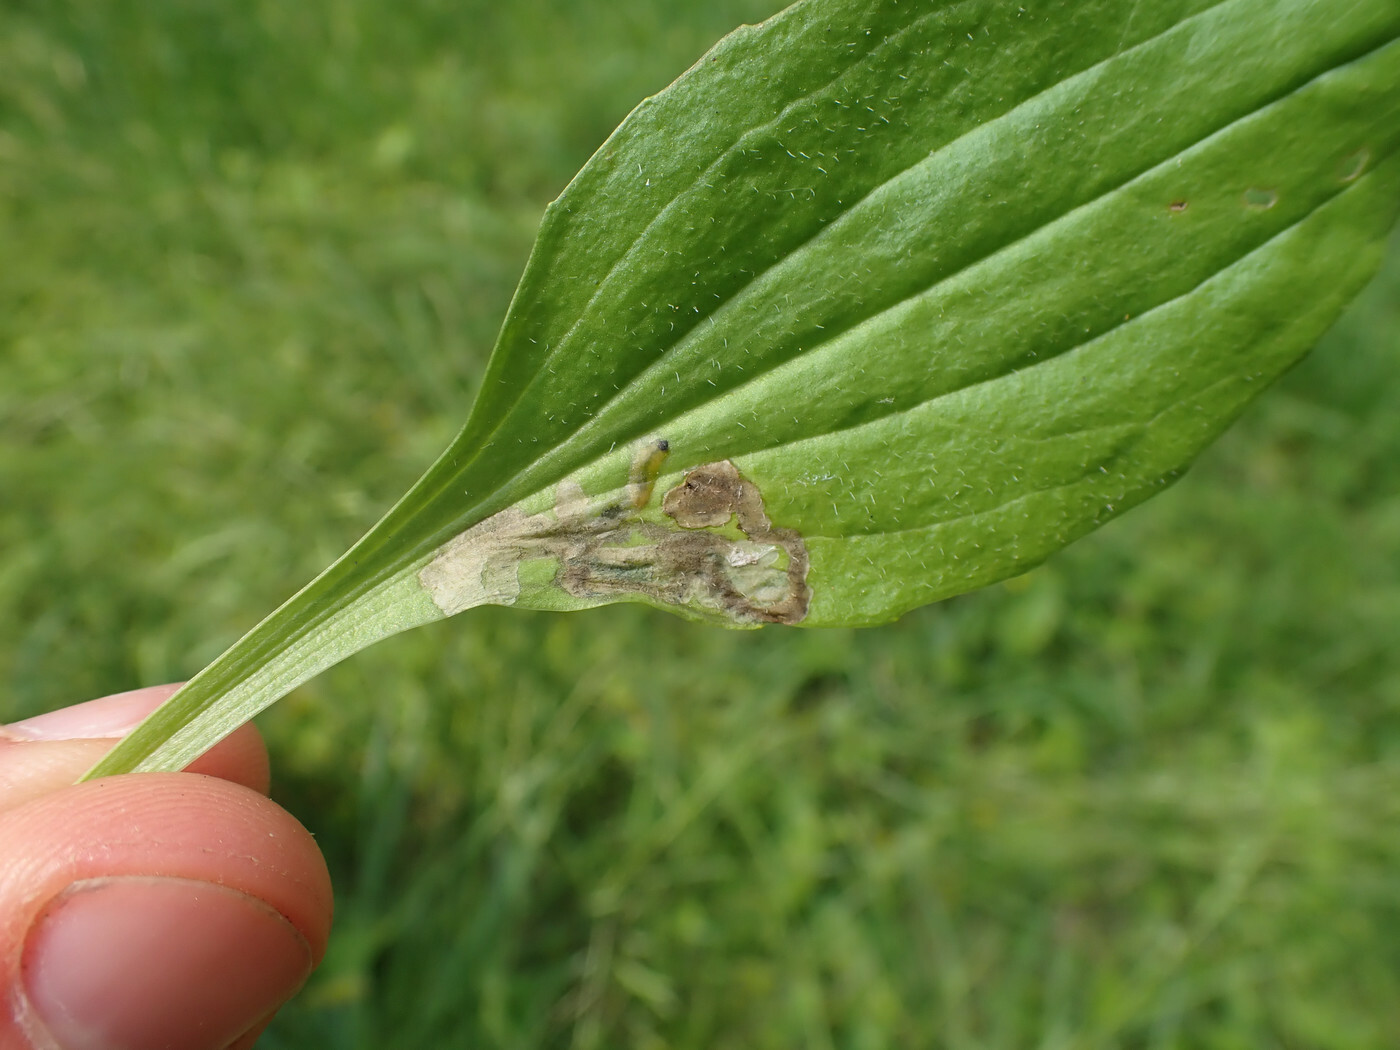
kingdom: Animalia
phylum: Arthropoda
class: Insecta
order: Coleoptera
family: Chrysomelidae
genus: Dibolia
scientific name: Dibolia borealis
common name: Northern plantain flea beetle
